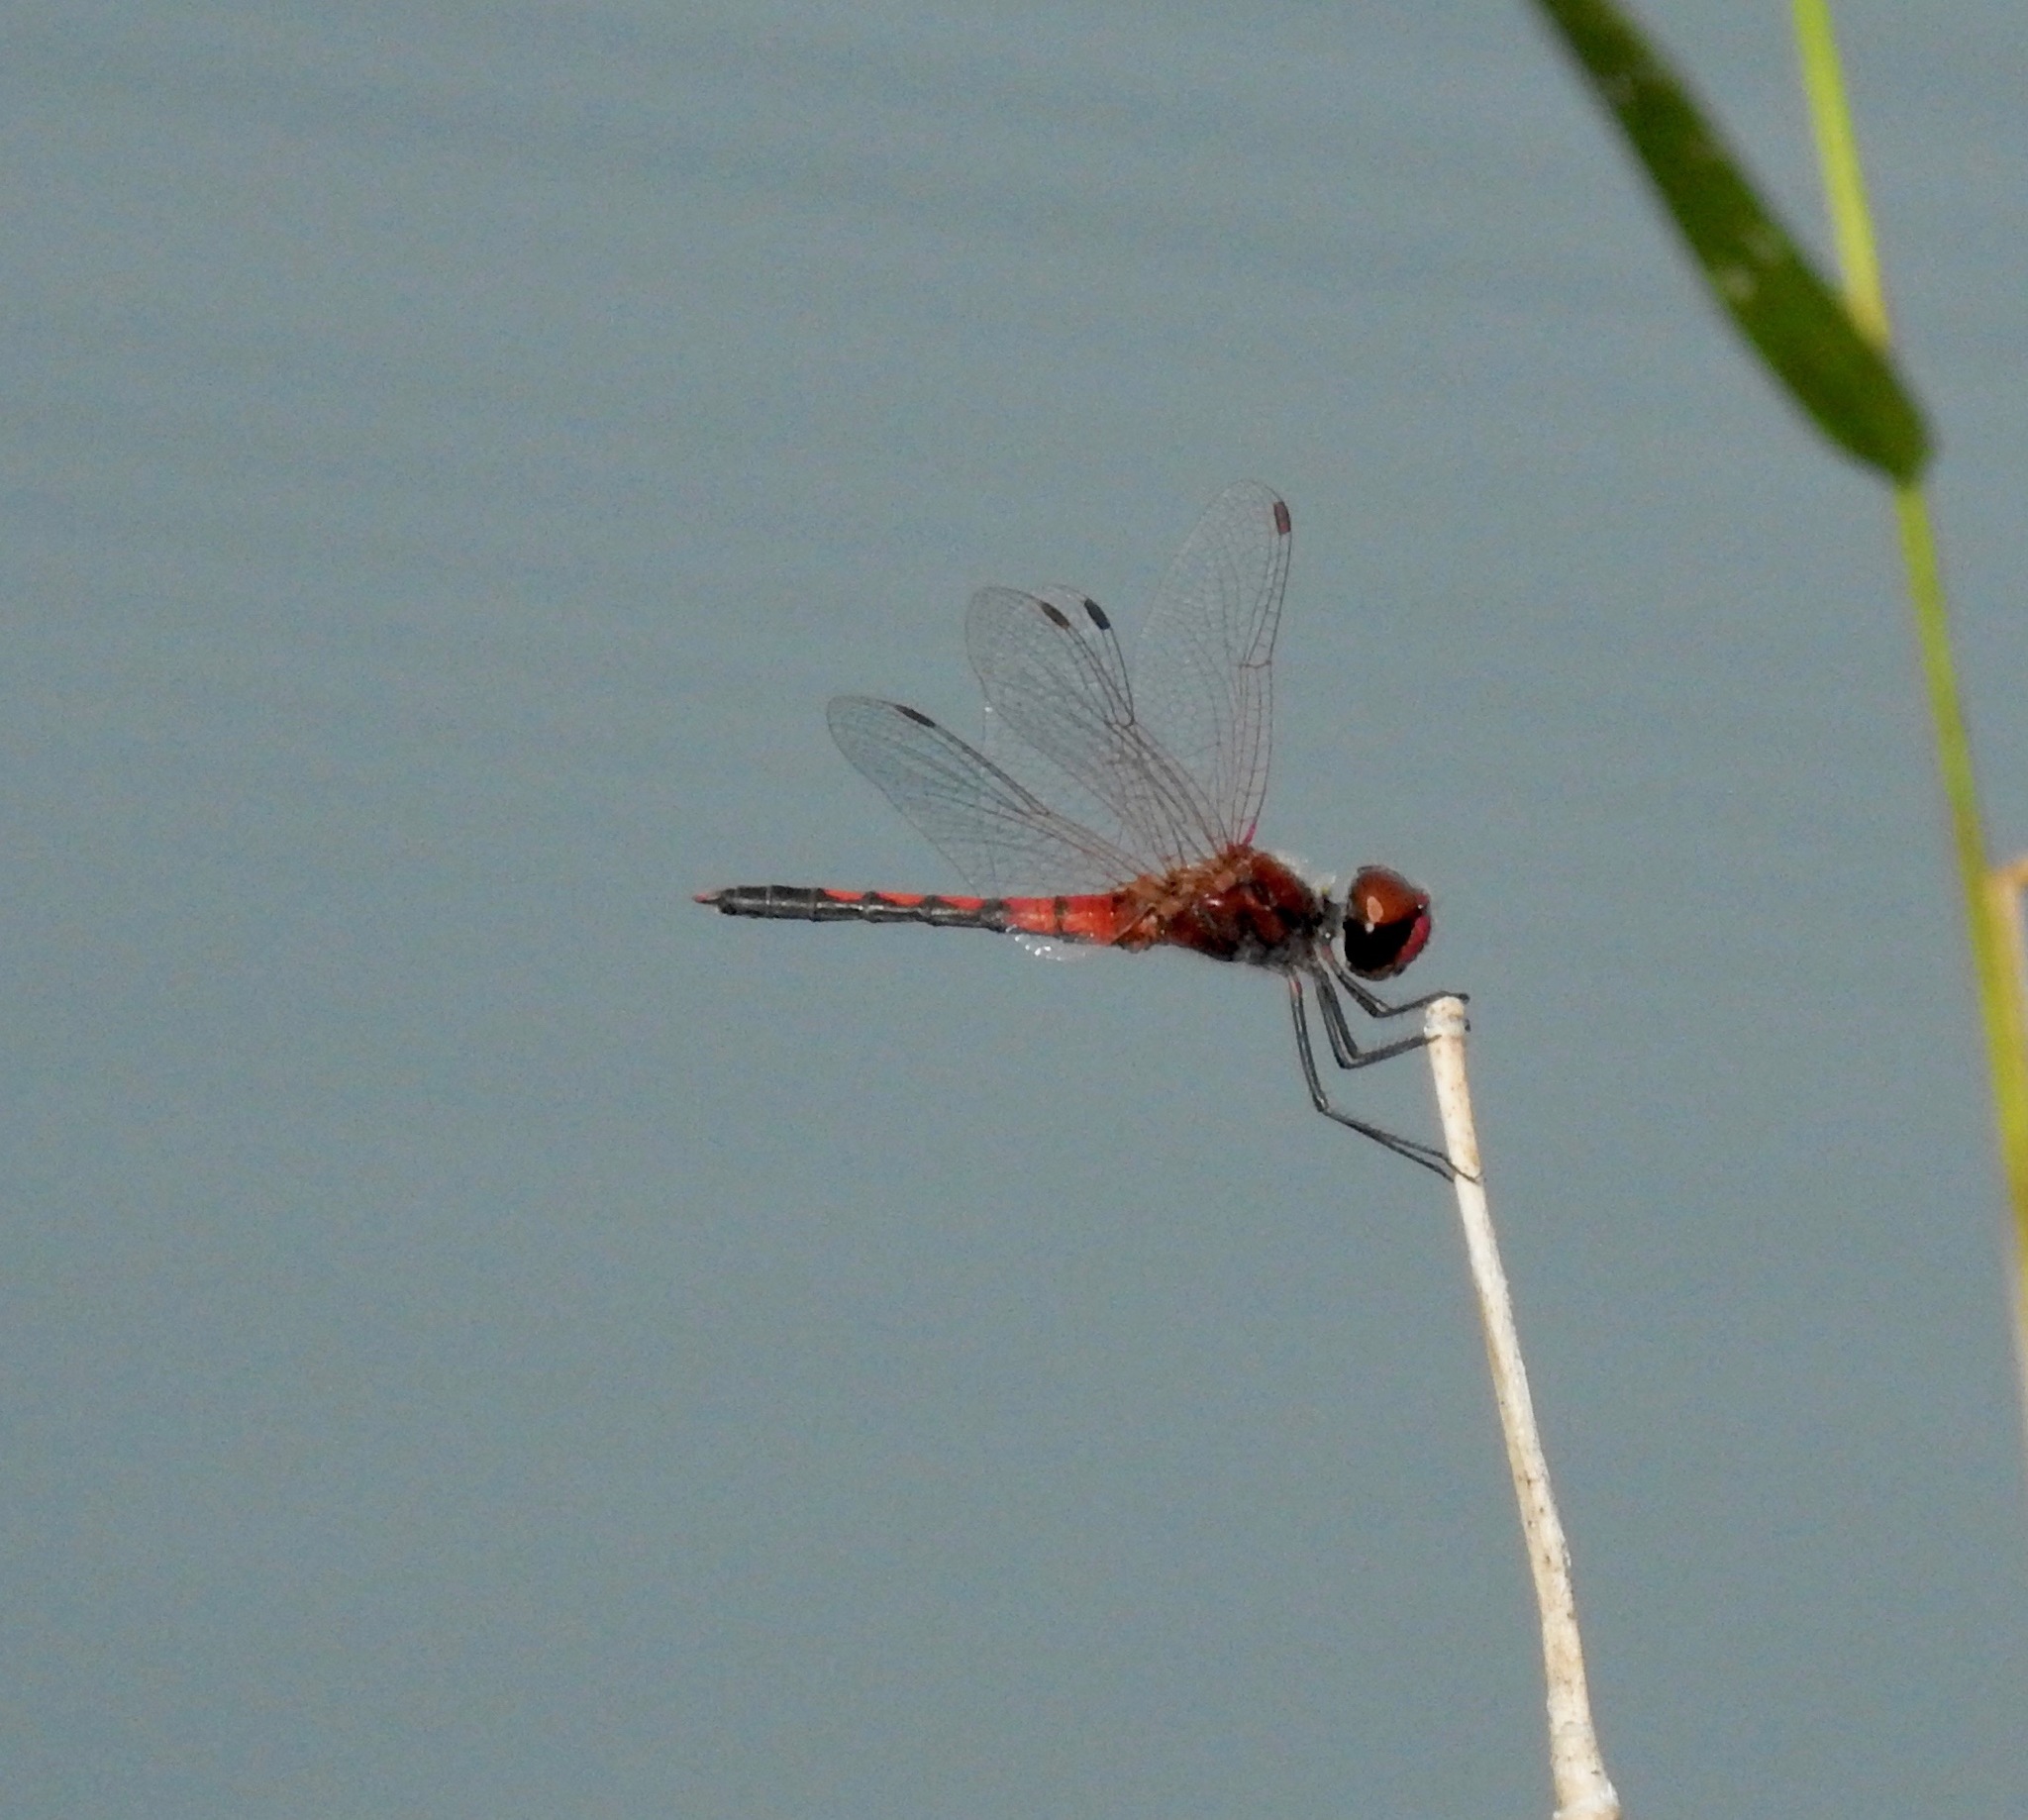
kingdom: Animalia
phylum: Arthropoda
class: Insecta
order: Odonata
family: Libellulidae
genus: Celithemis
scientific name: Celithemis bertha
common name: Red-veined pennant
